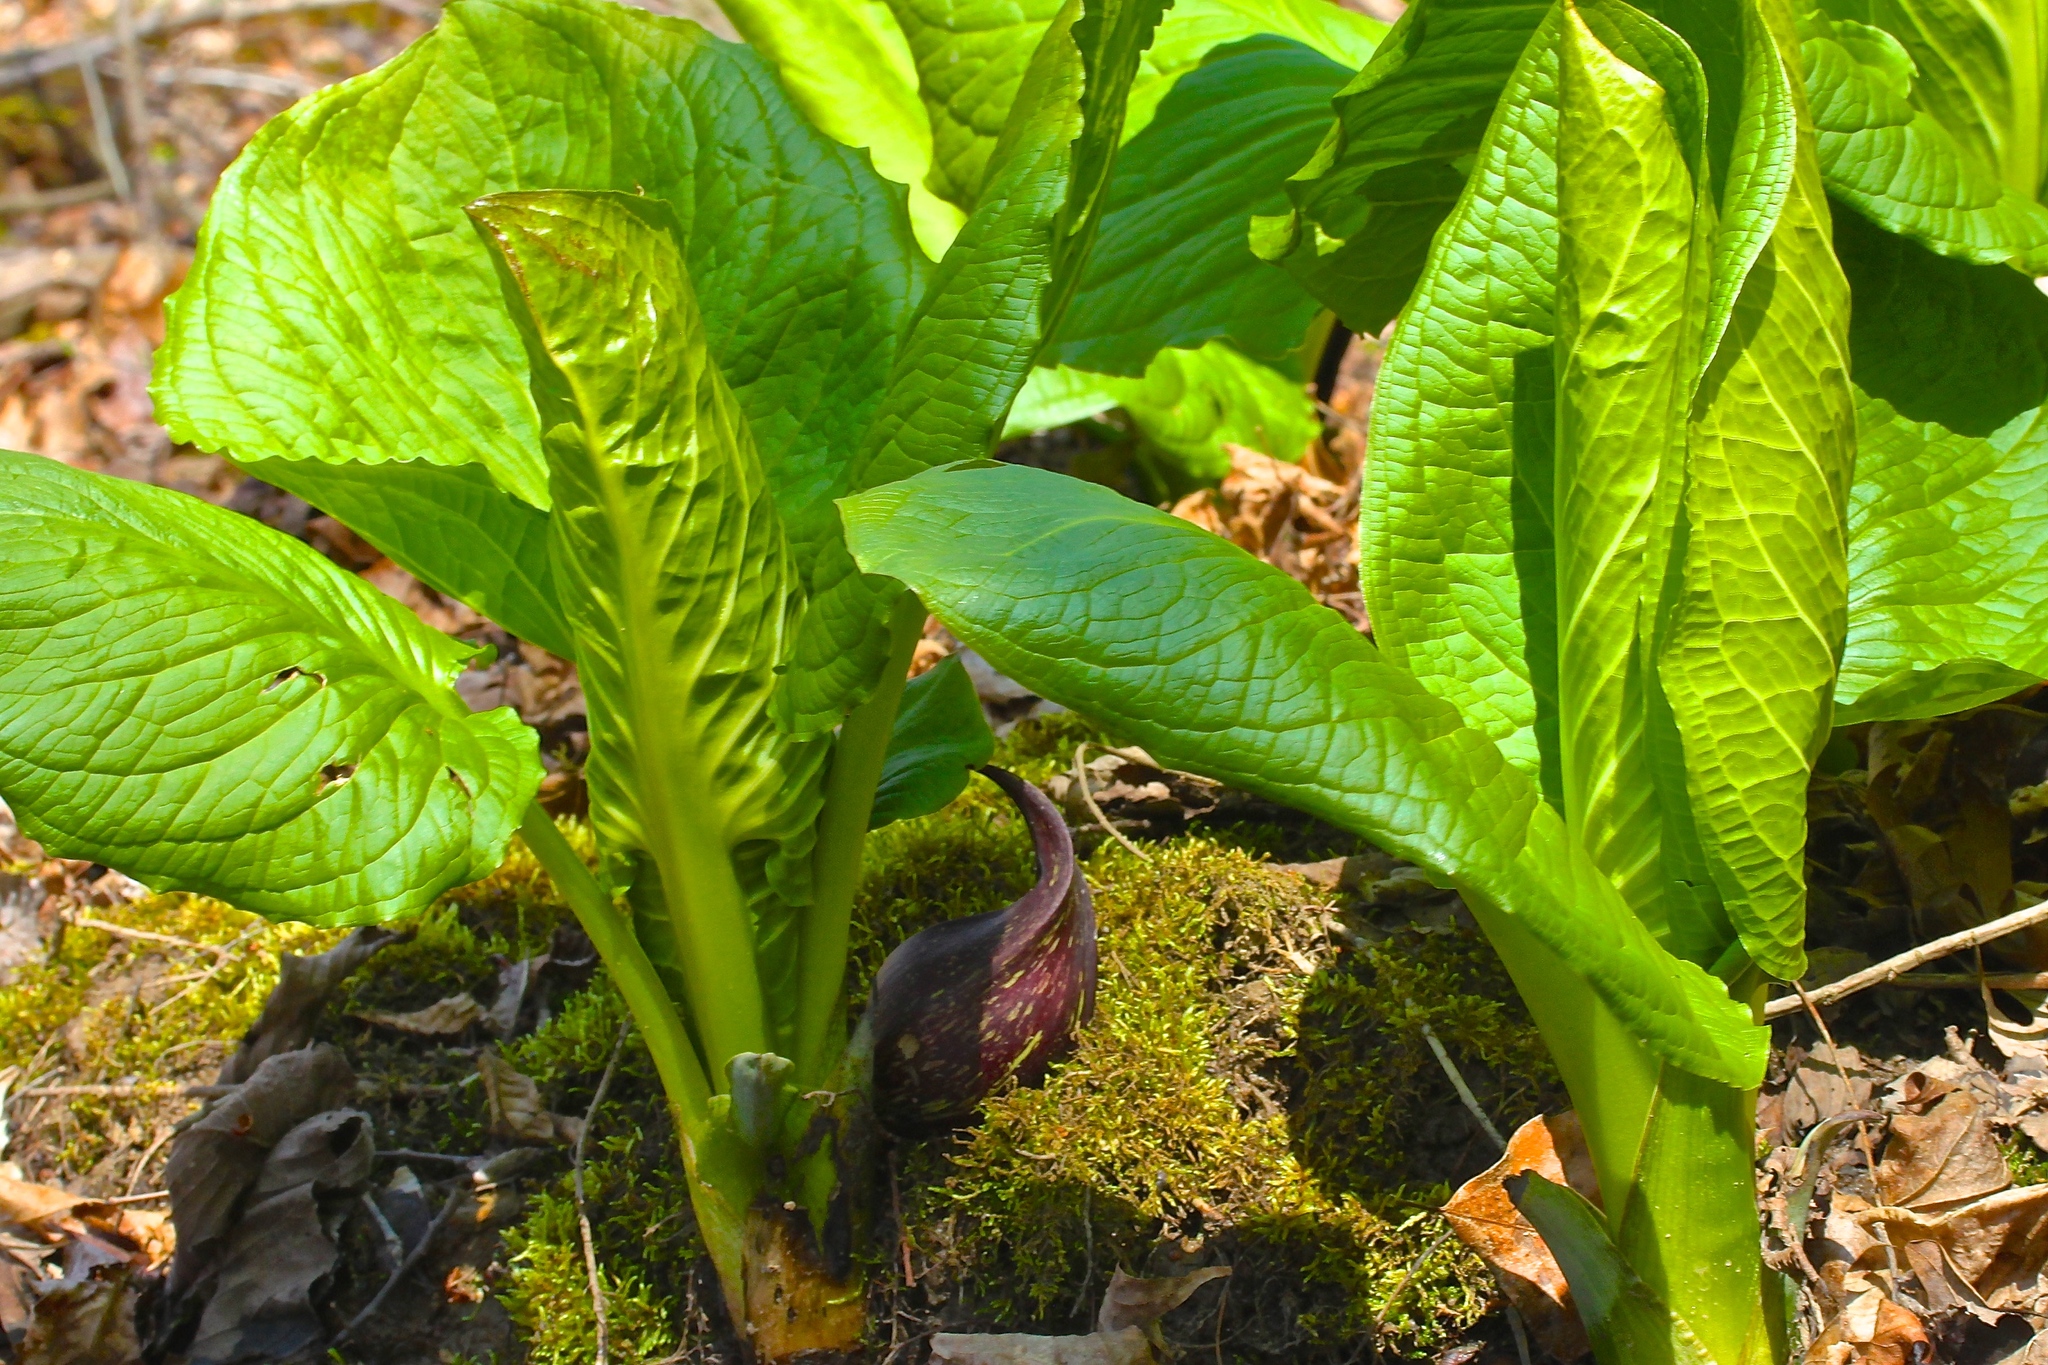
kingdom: Plantae
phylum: Tracheophyta
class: Liliopsida
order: Alismatales
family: Araceae
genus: Symplocarpus
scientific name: Symplocarpus foetidus
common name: Eastern skunk cabbage
